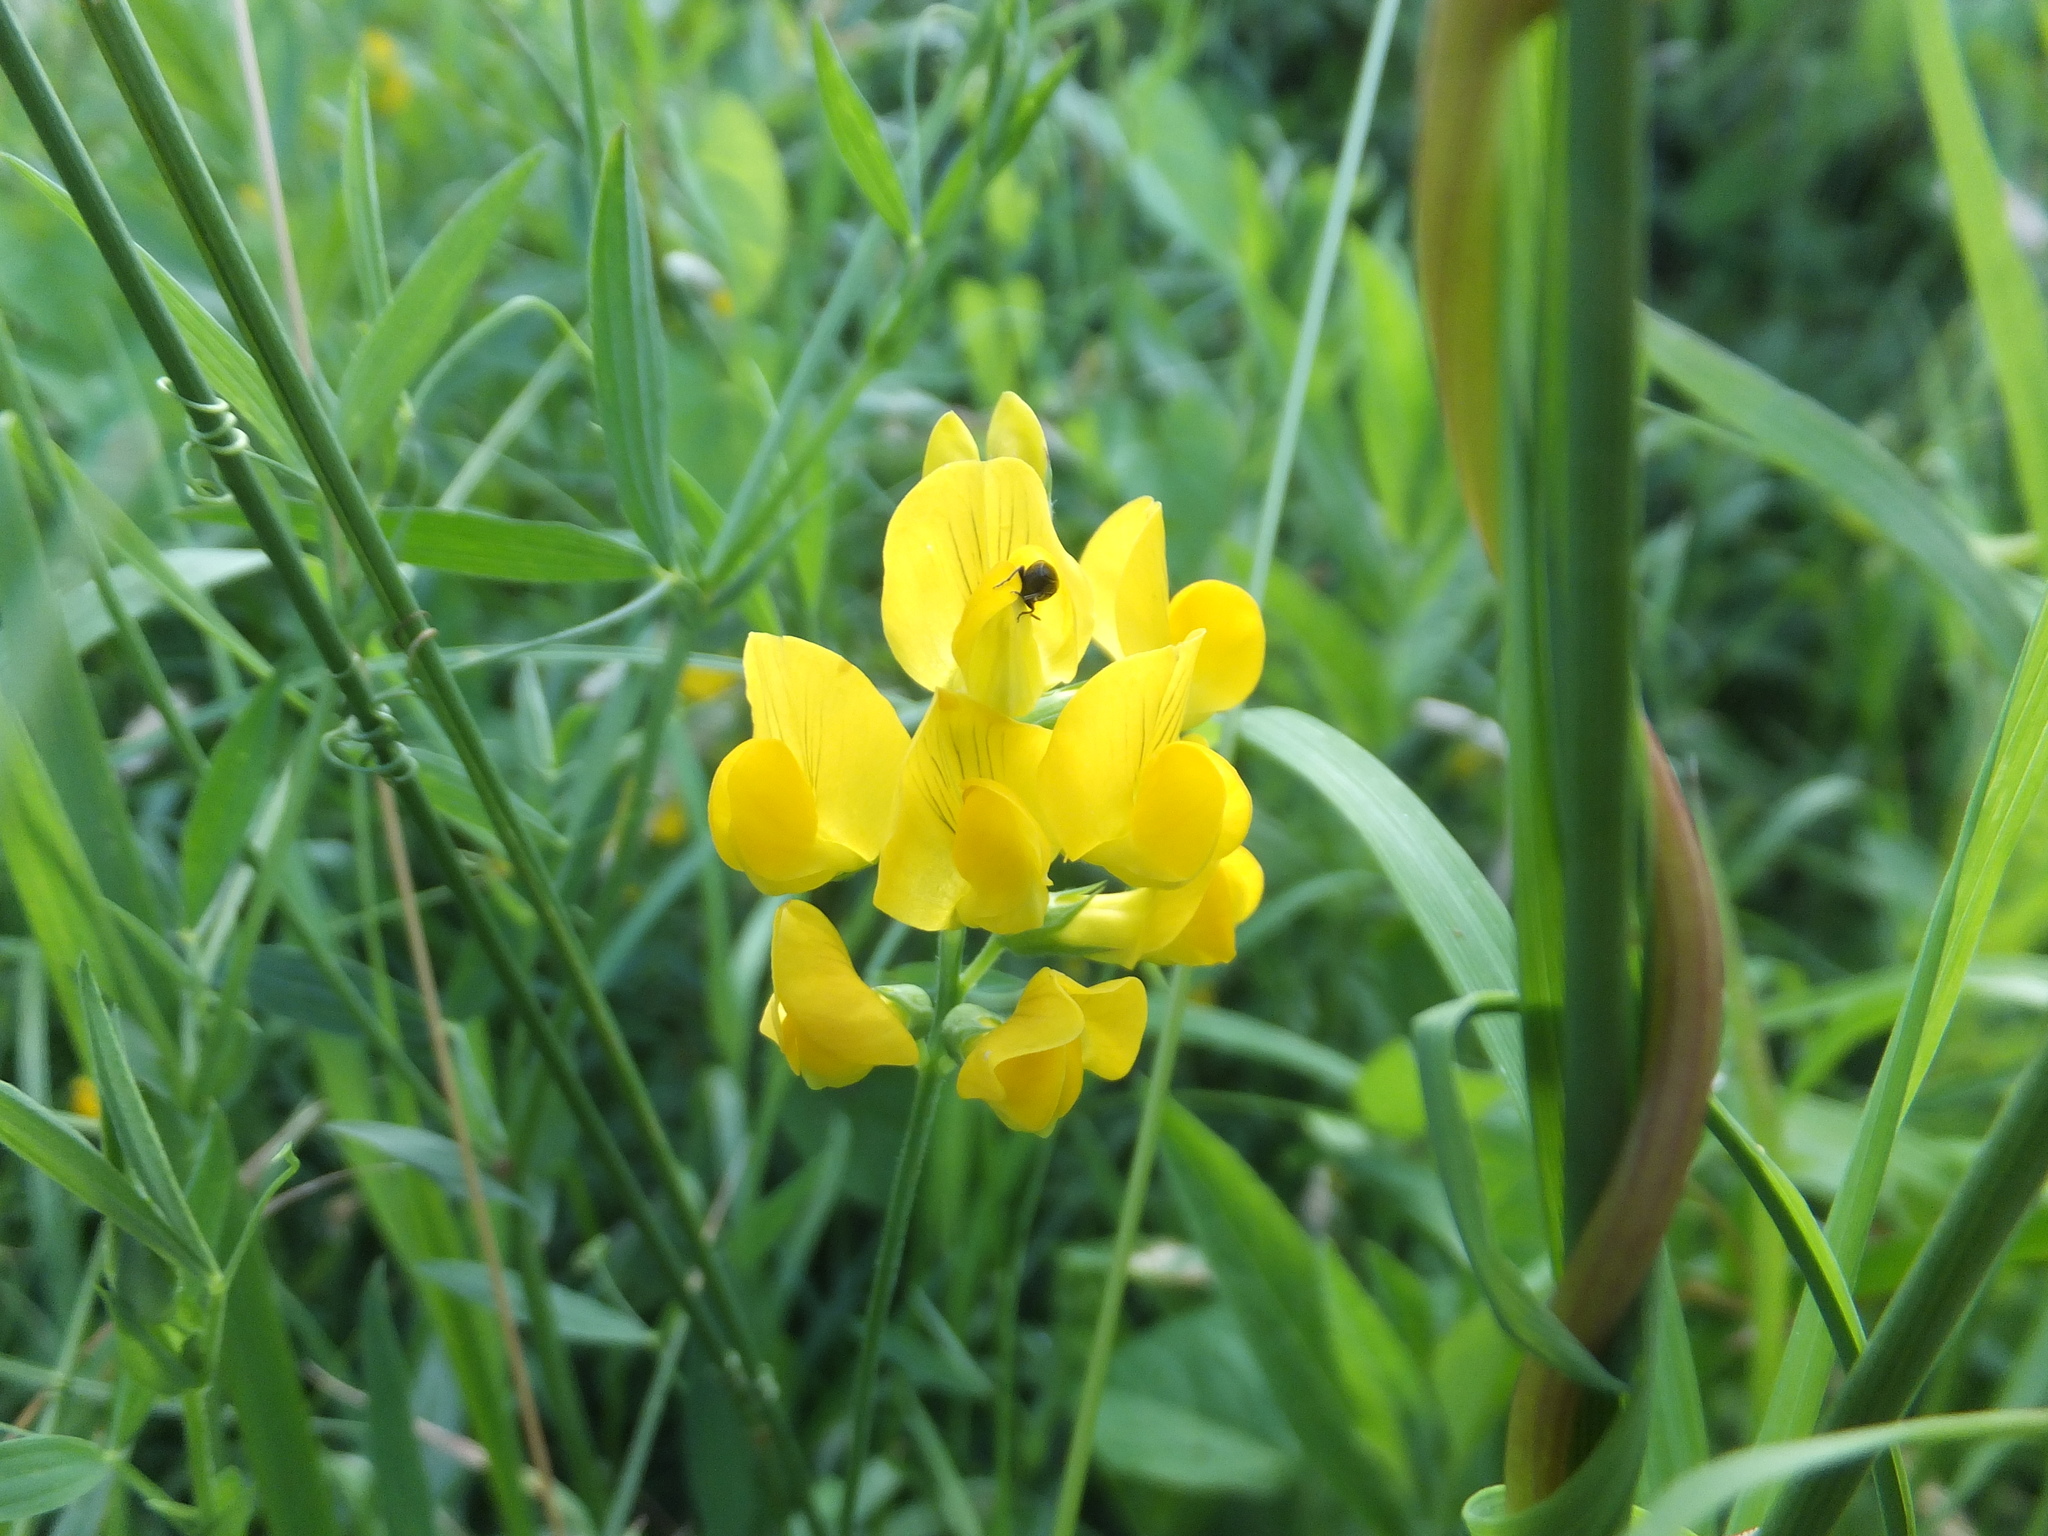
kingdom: Plantae
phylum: Tracheophyta
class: Magnoliopsida
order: Fabales
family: Fabaceae
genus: Lathyrus
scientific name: Lathyrus pratensis
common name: Meadow vetchling
